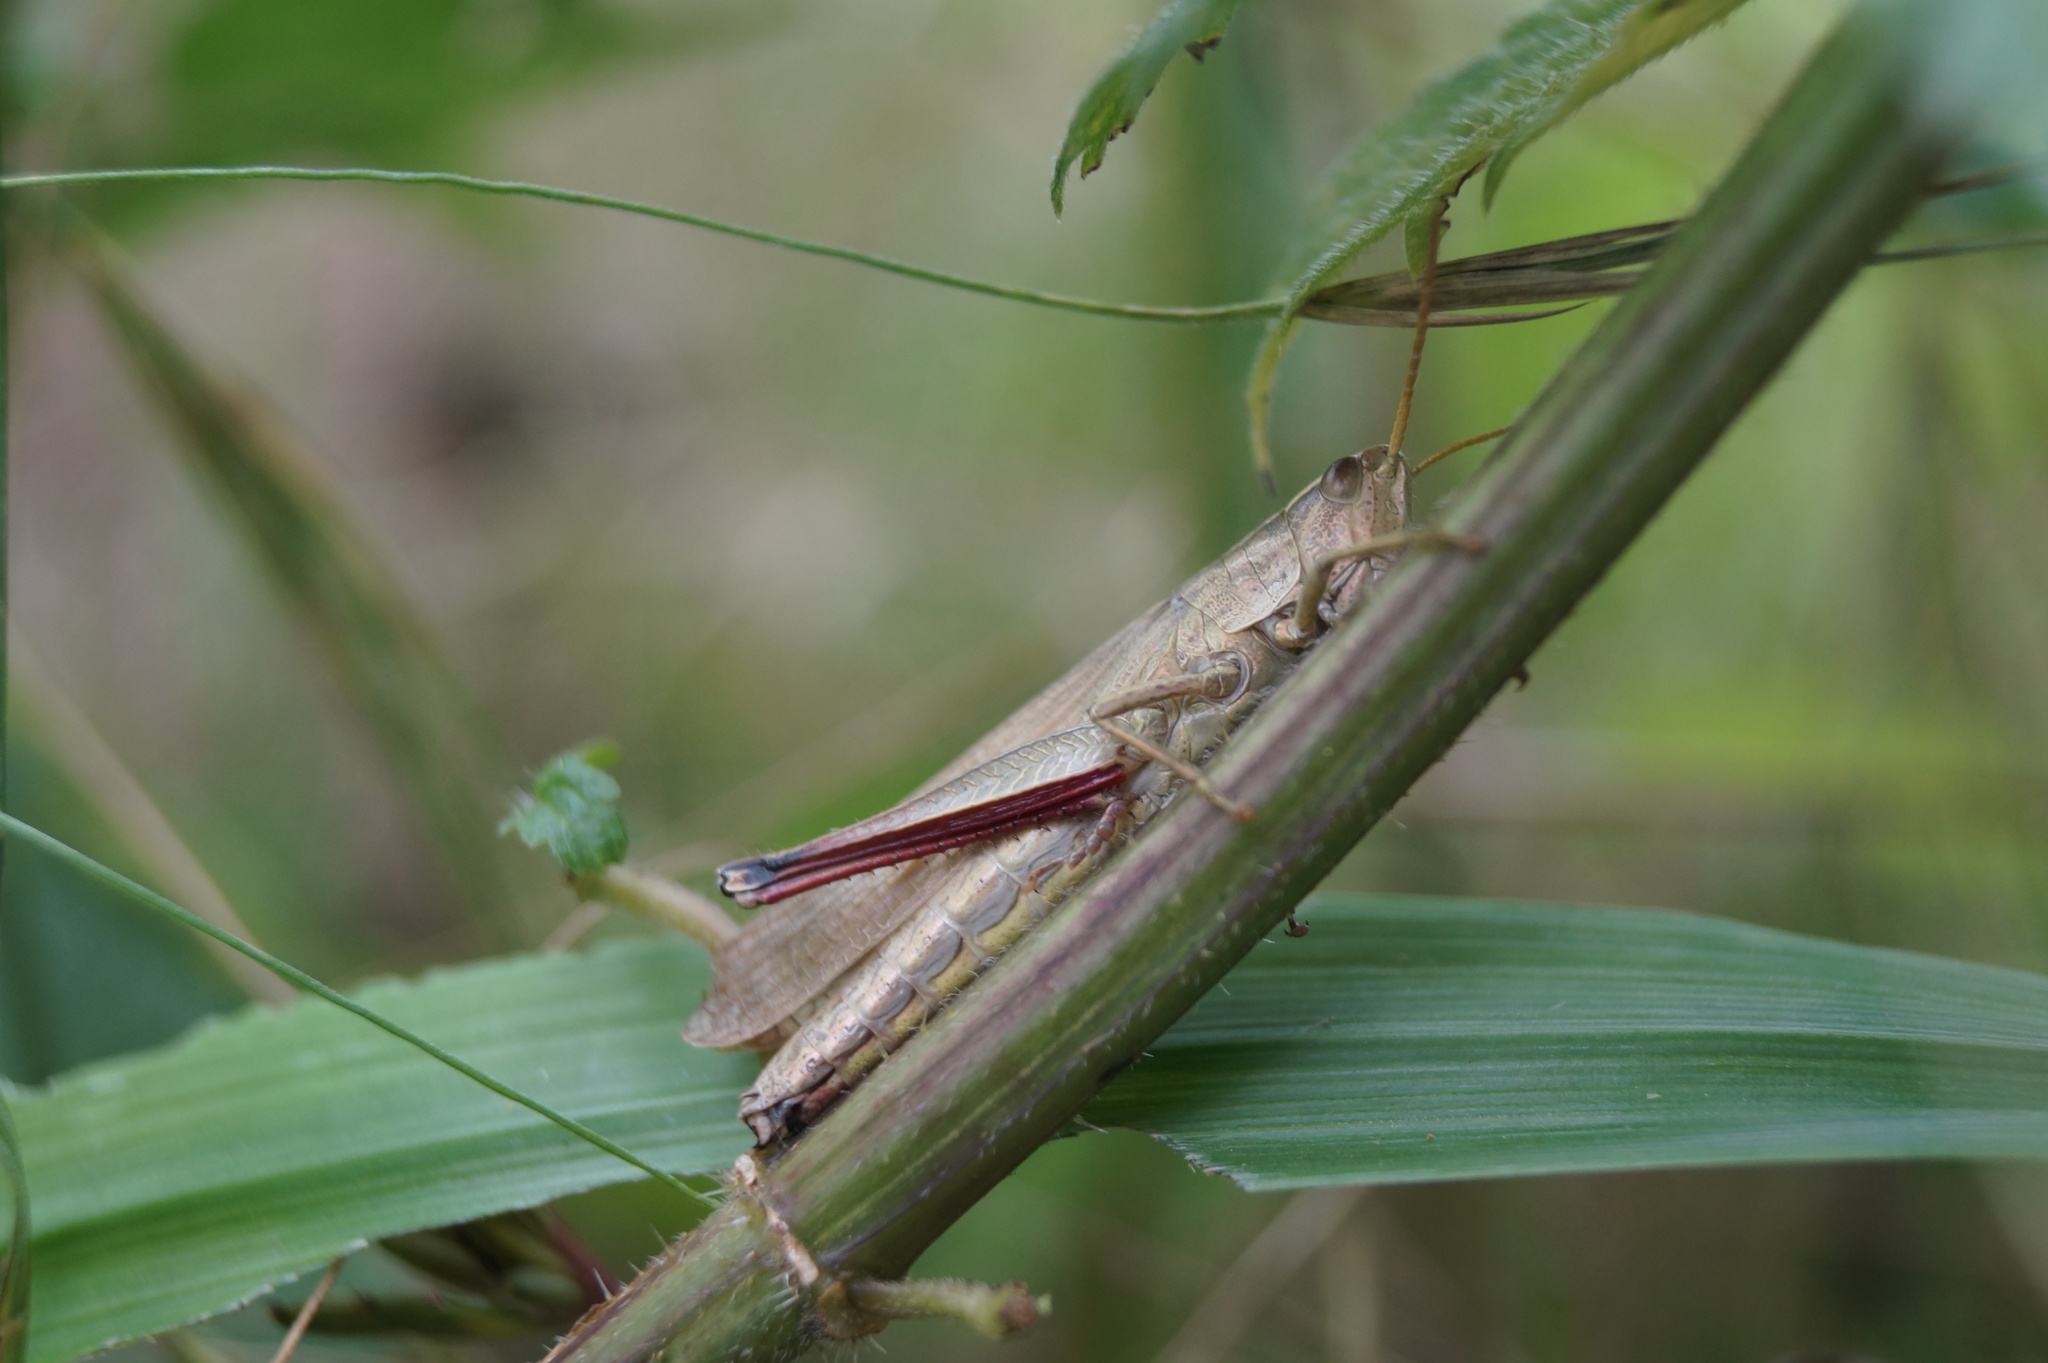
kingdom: Animalia
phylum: Arthropoda
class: Insecta
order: Orthoptera
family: Acrididae
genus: Chrysochraon
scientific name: Chrysochraon dispar
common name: Large gold grasshopper
